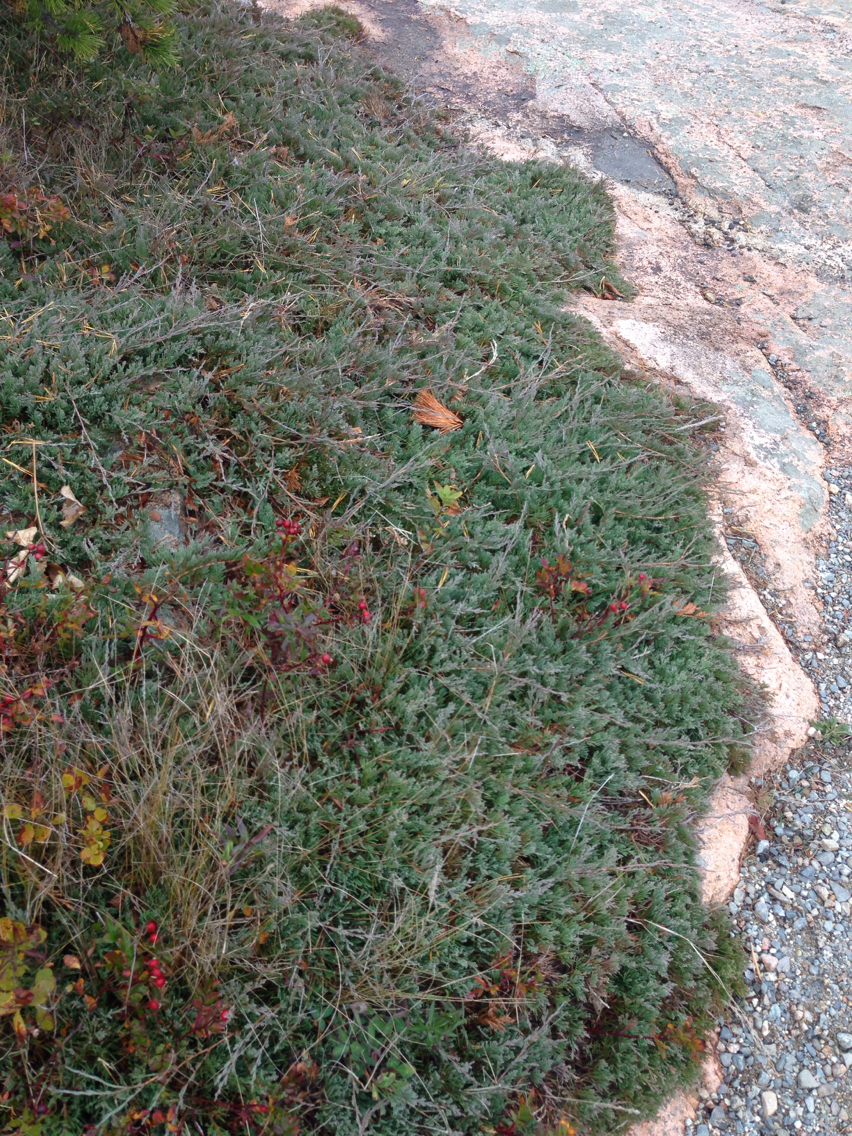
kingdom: Plantae
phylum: Tracheophyta
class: Pinopsida
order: Pinales
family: Cupressaceae
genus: Juniperus
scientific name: Juniperus horizontalis
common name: Creeping juniper
